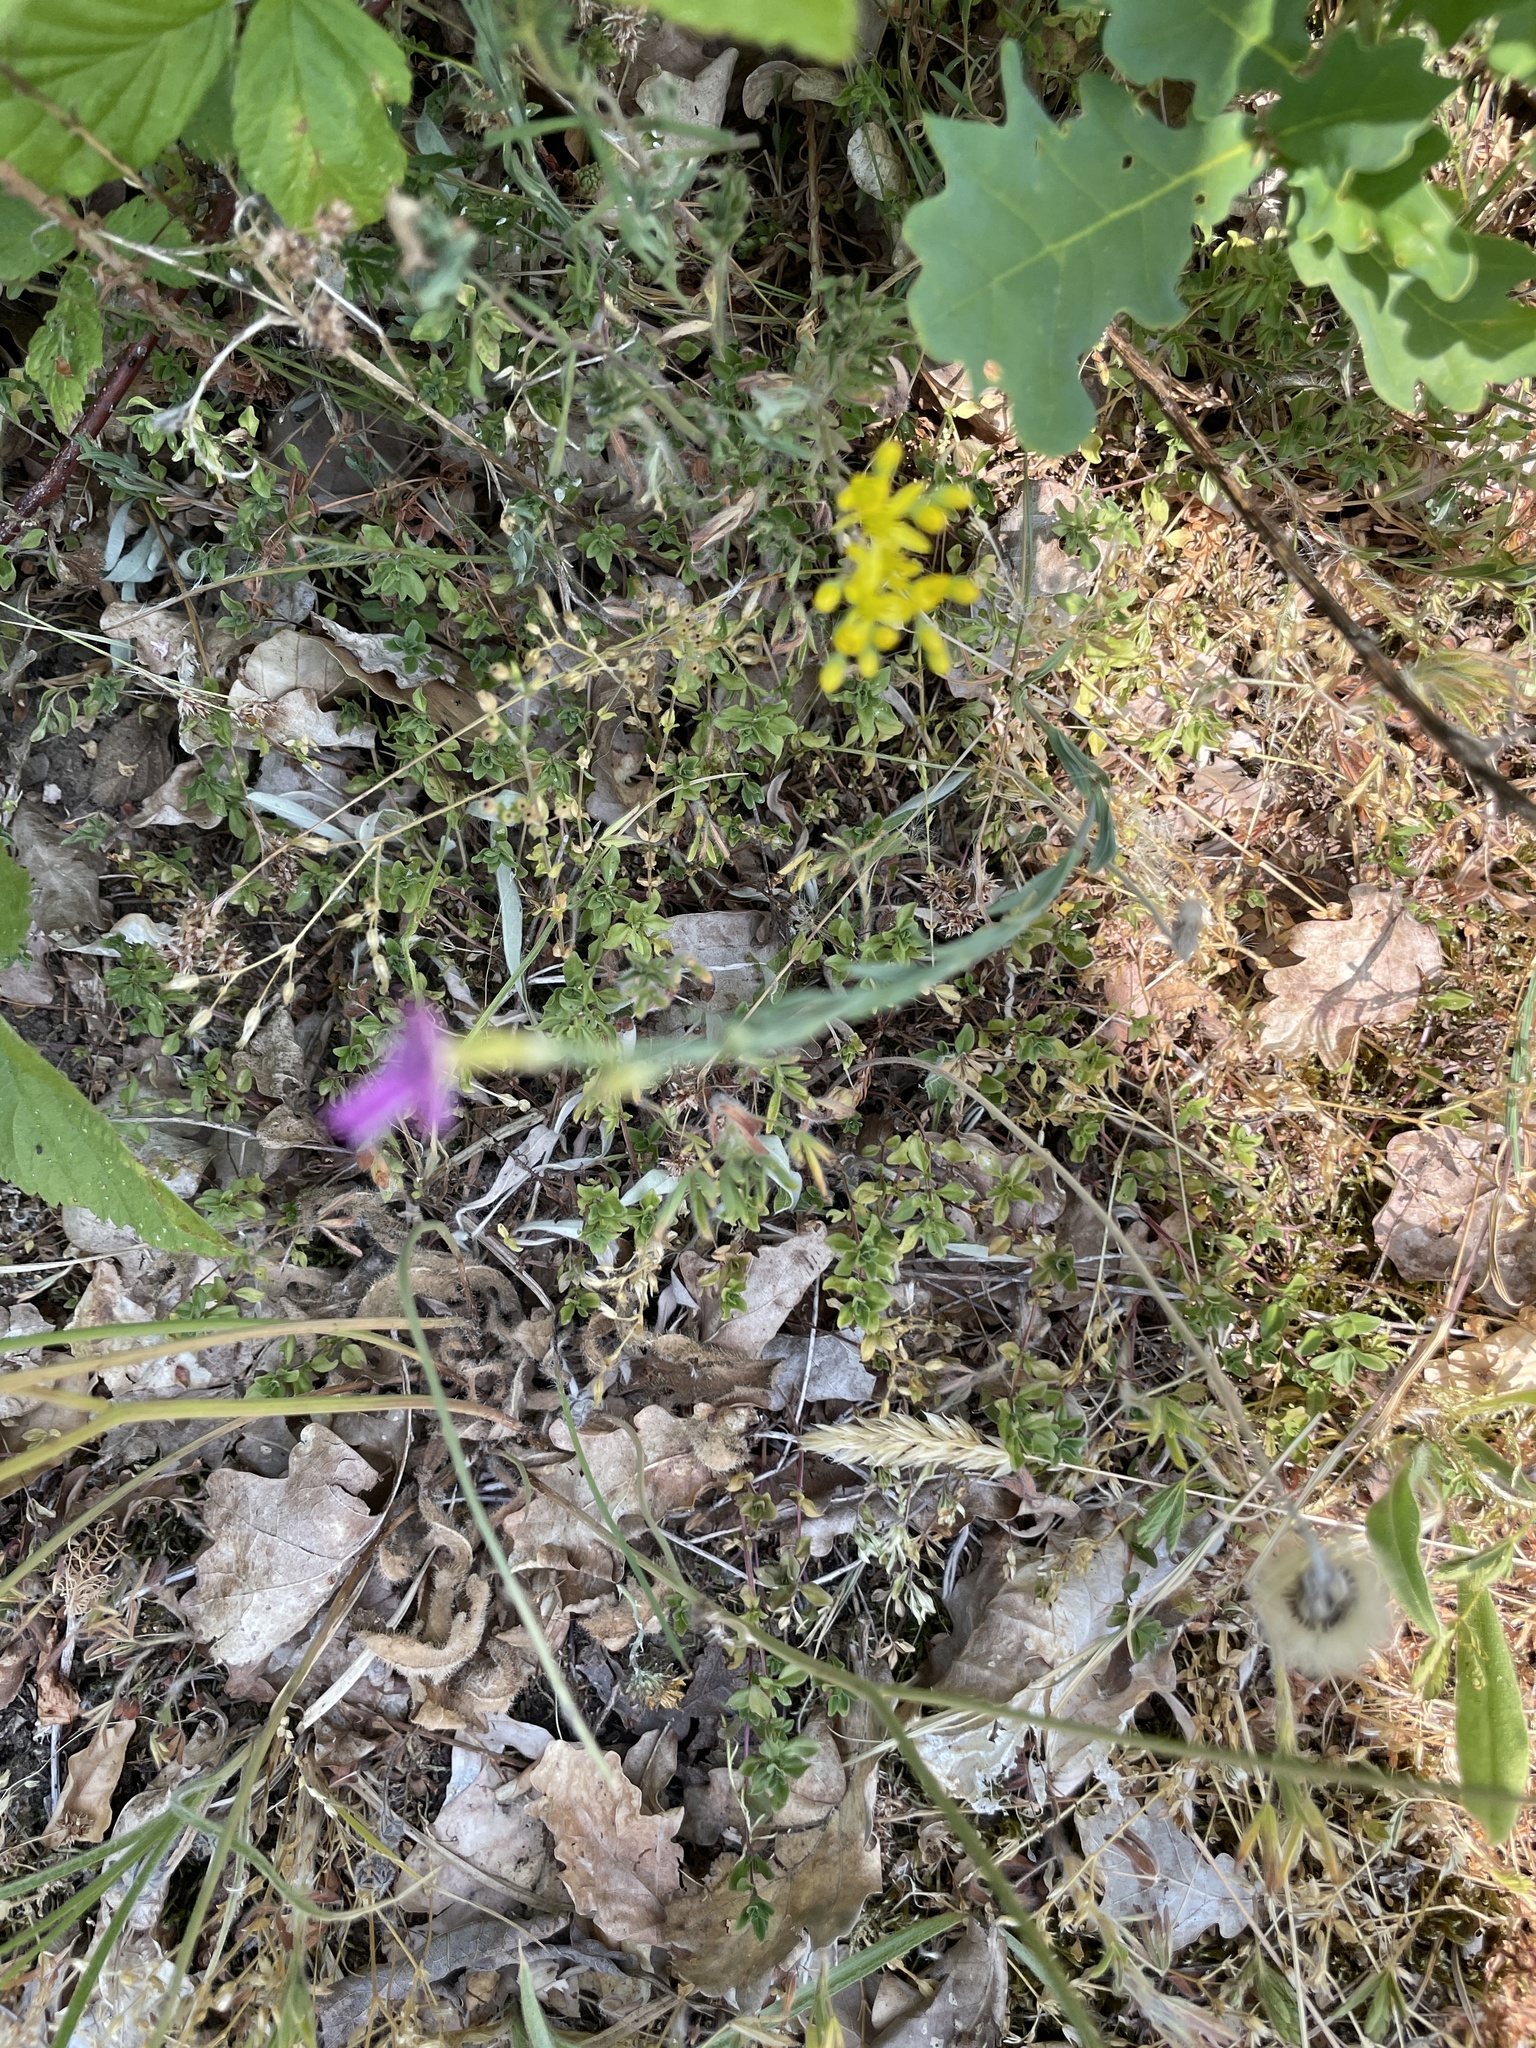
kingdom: Plantae
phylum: Tracheophyta
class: Magnoliopsida
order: Caryophyllales
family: Caryophyllaceae
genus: Dianthus
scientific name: Dianthus deltoides
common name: Maiden pink
